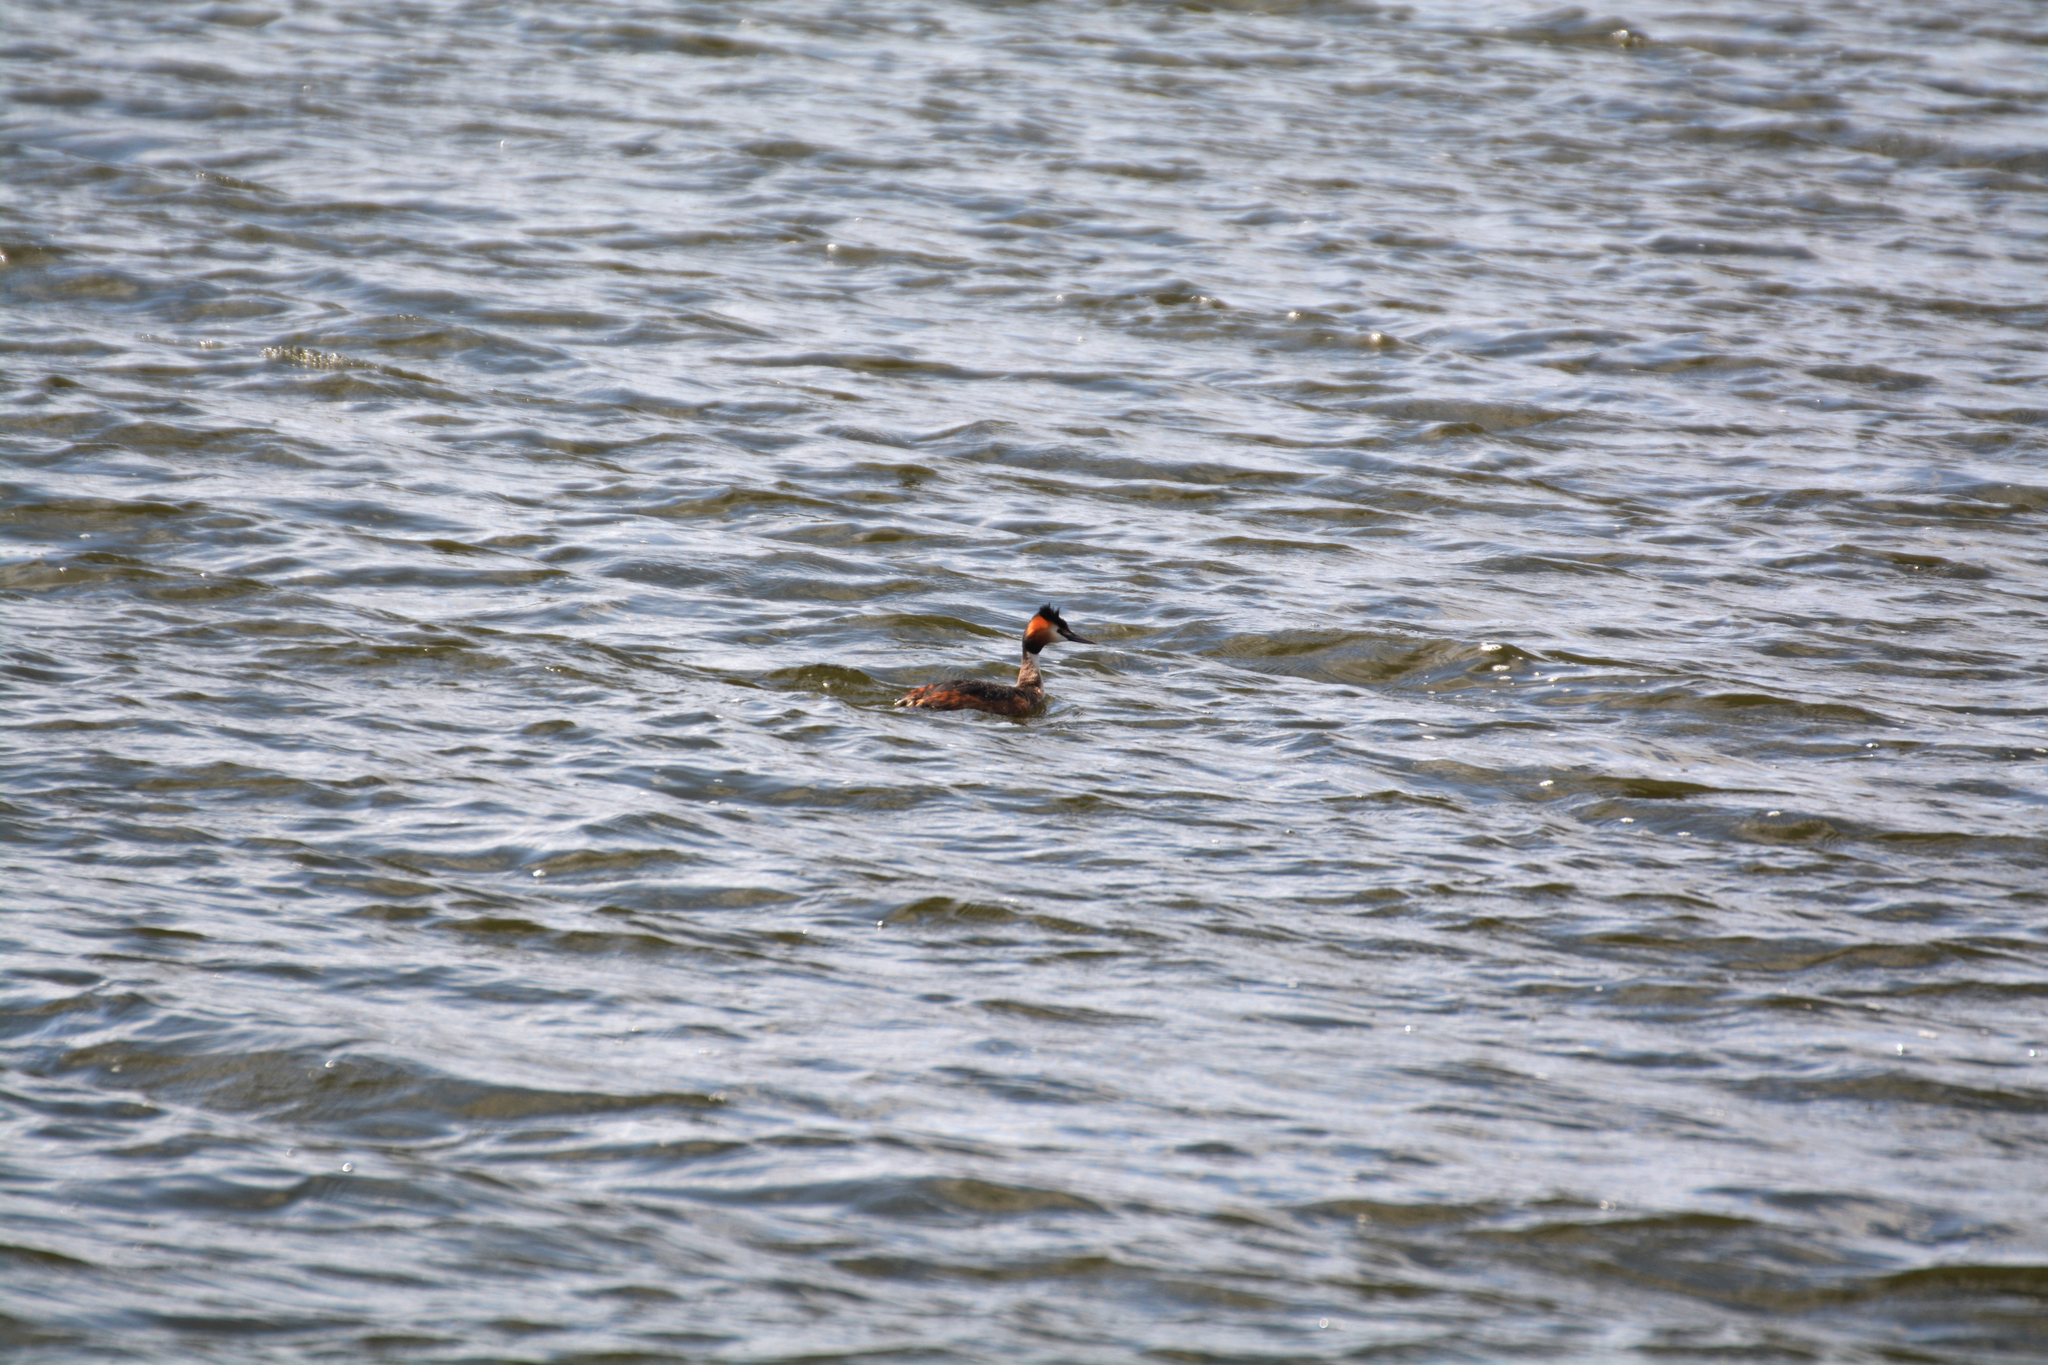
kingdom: Animalia
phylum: Chordata
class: Aves
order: Podicipediformes
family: Podicipedidae
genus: Podiceps
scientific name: Podiceps cristatus
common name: Great crested grebe
